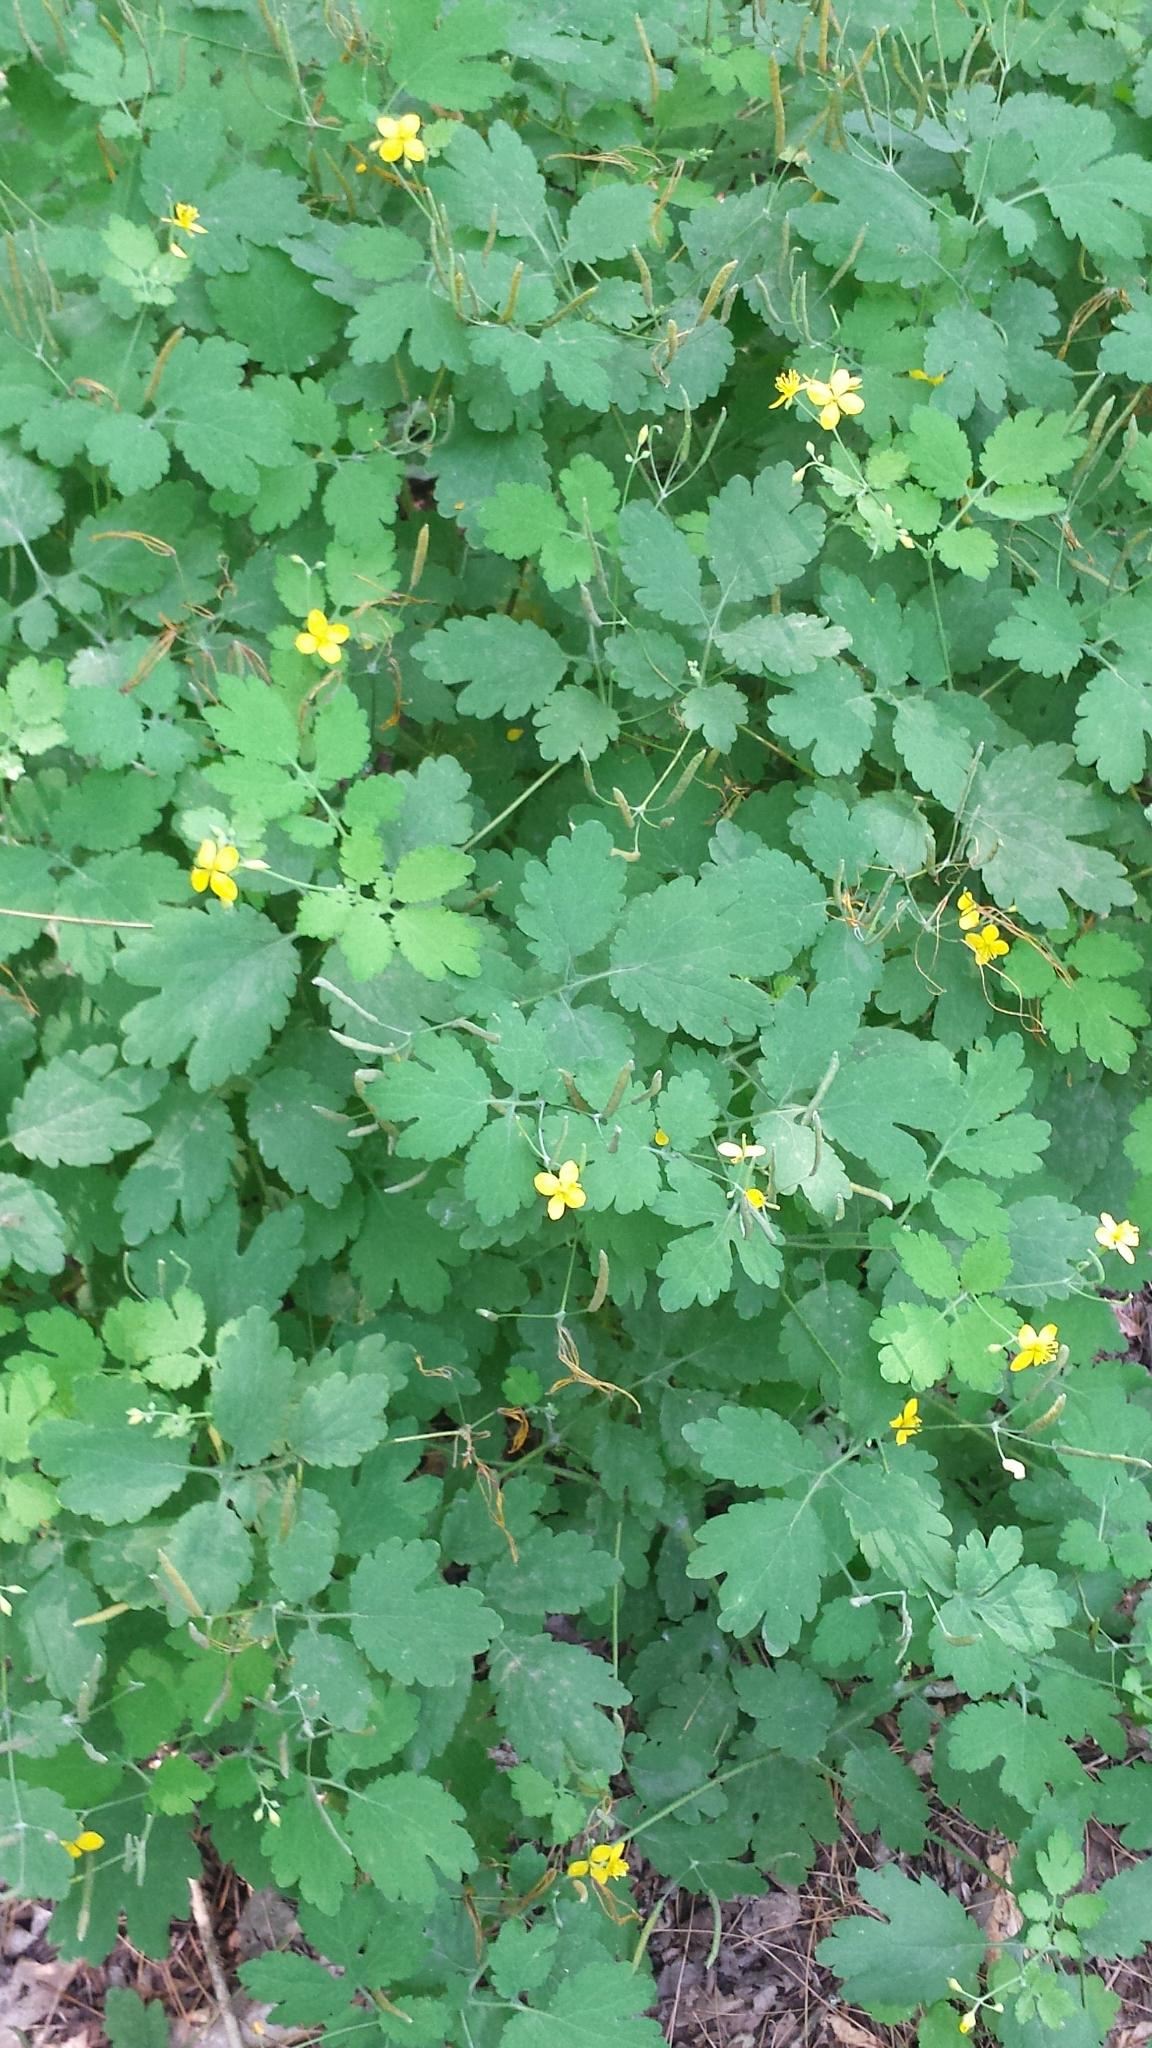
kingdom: Plantae
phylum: Tracheophyta
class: Magnoliopsida
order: Ranunculales
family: Papaveraceae
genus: Chelidonium
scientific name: Chelidonium majus
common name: Greater celandine
